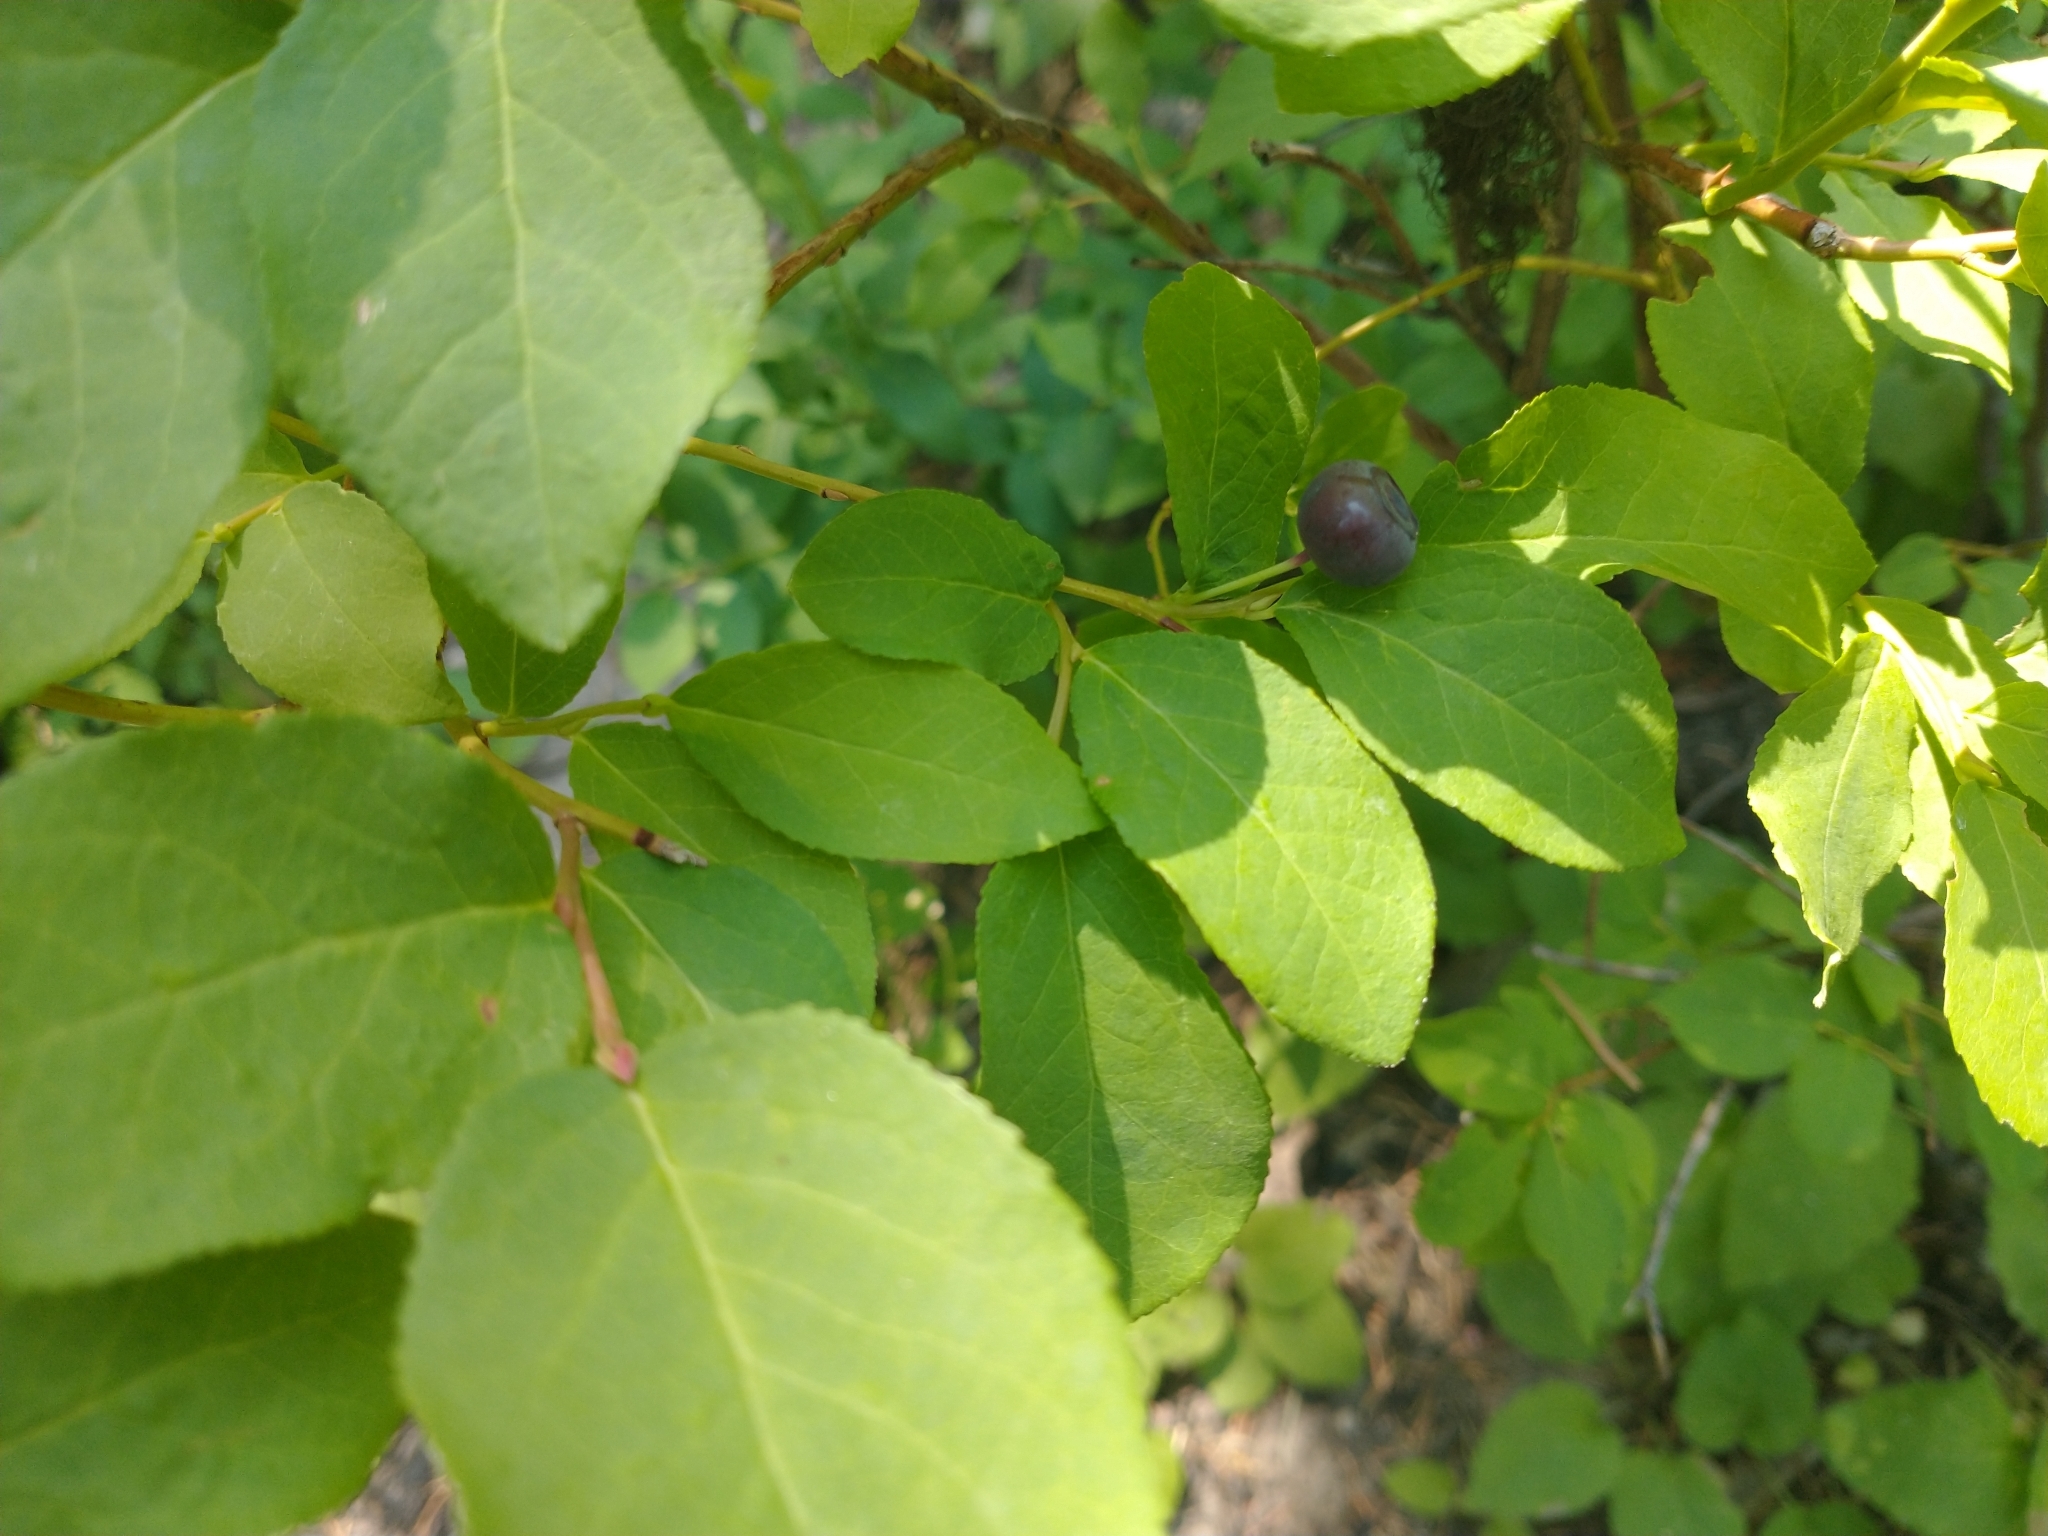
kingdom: Plantae
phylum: Tracheophyta
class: Magnoliopsida
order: Ericales
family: Ericaceae
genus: Vaccinium
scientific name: Vaccinium membranaceum
